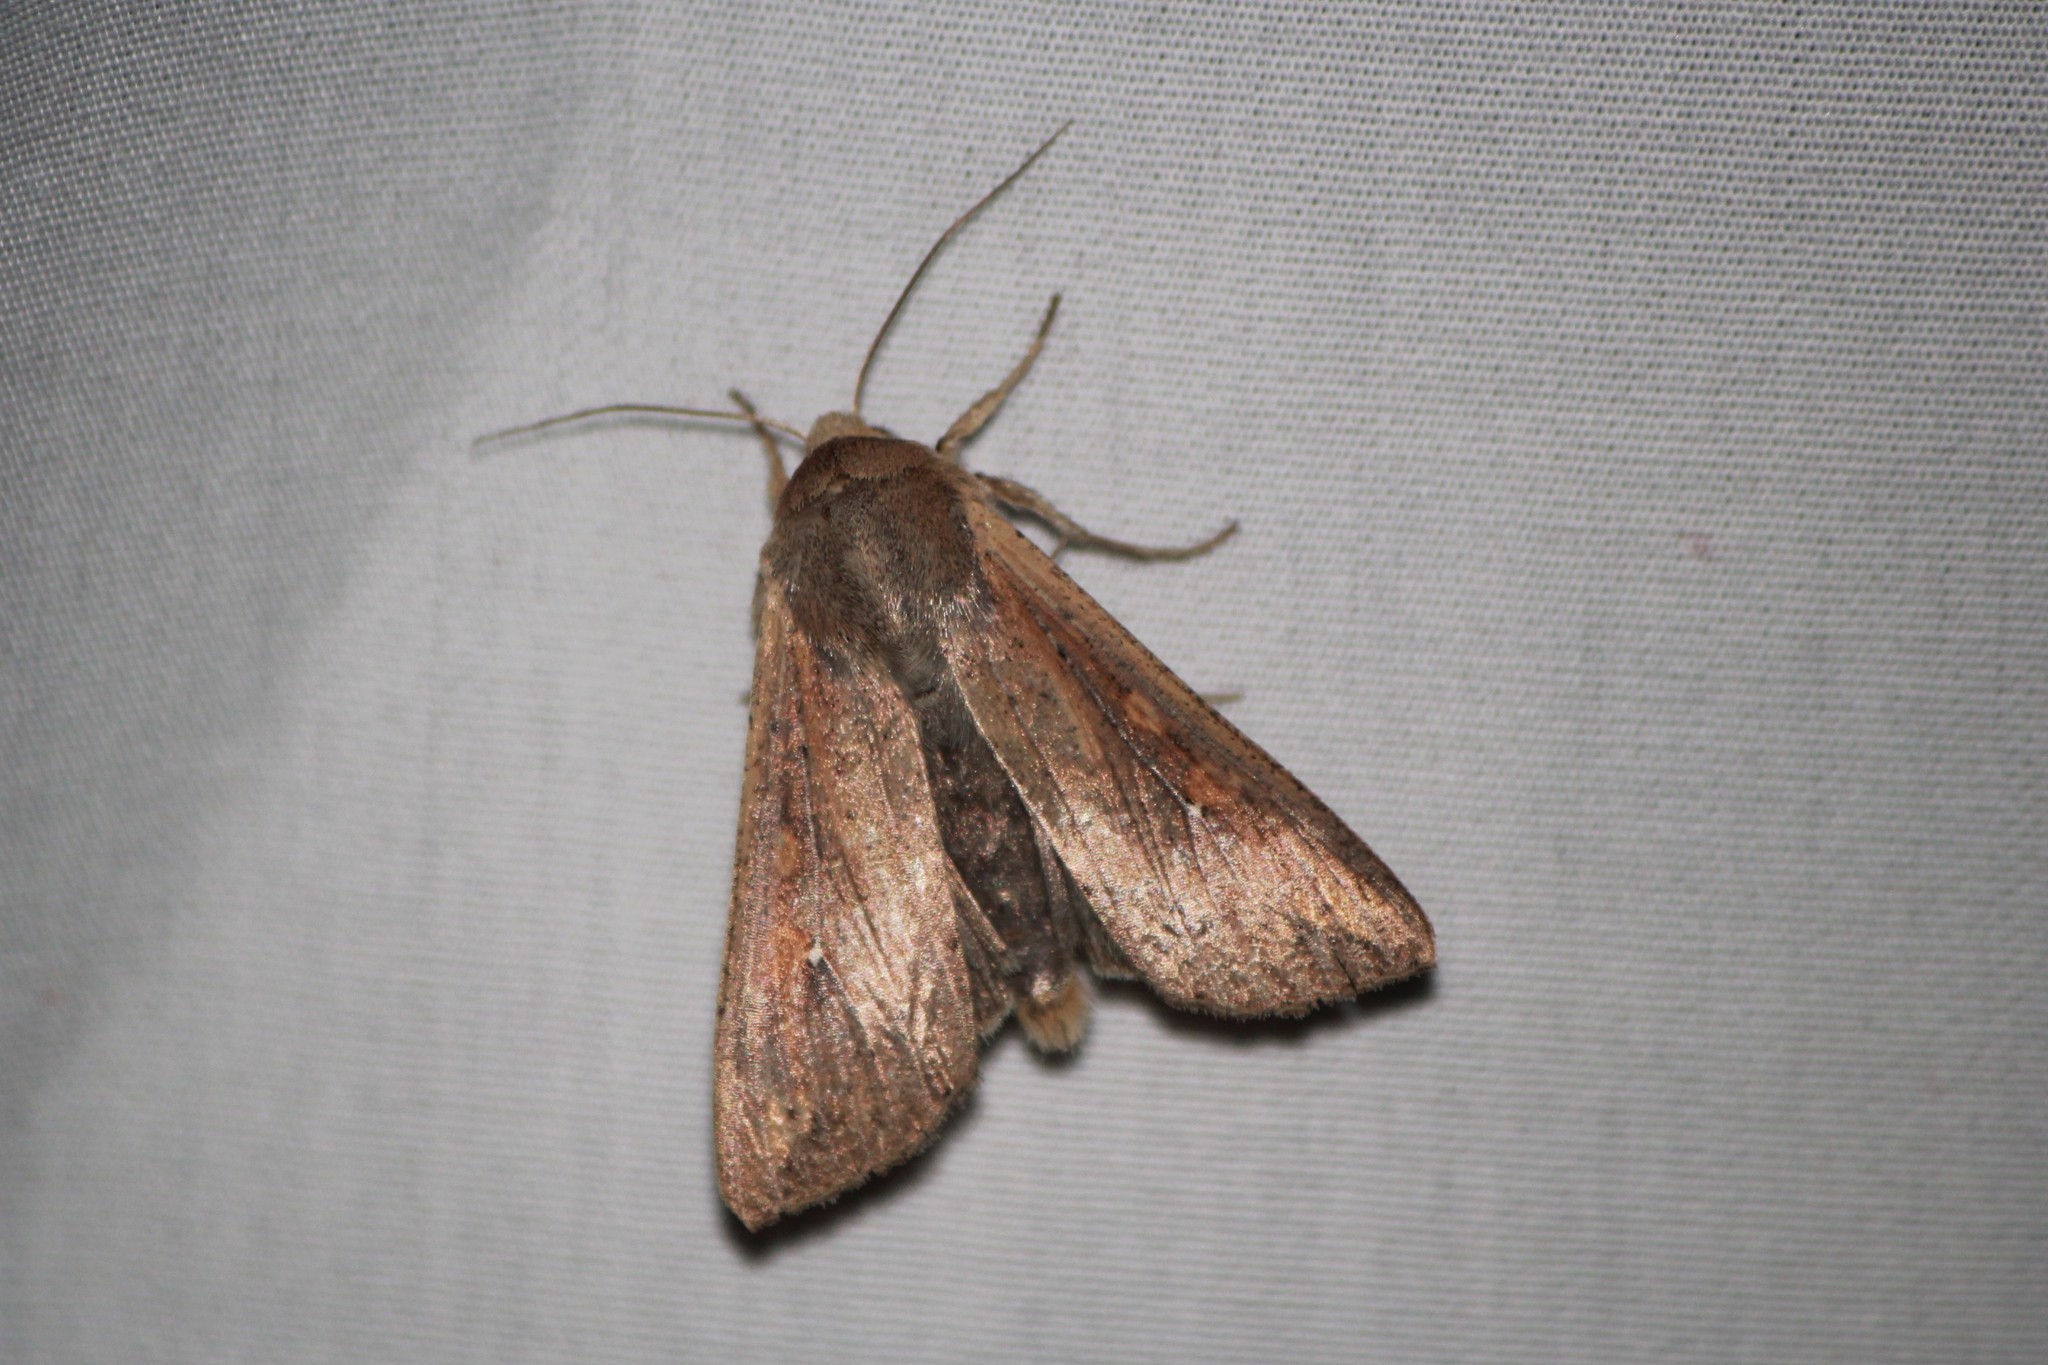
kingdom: Animalia
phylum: Arthropoda
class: Insecta
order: Lepidoptera
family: Noctuidae
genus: Mythimna
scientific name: Mythimna unipuncta
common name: White-speck
